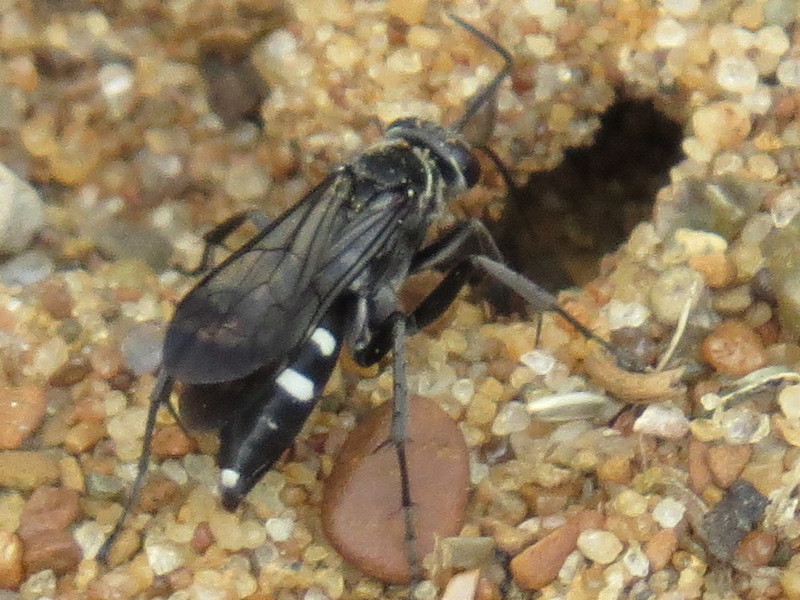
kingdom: Animalia
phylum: Arthropoda
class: Insecta
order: Hymenoptera
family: Pompilidae
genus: Episyron
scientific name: Episyron quinquenotatus
